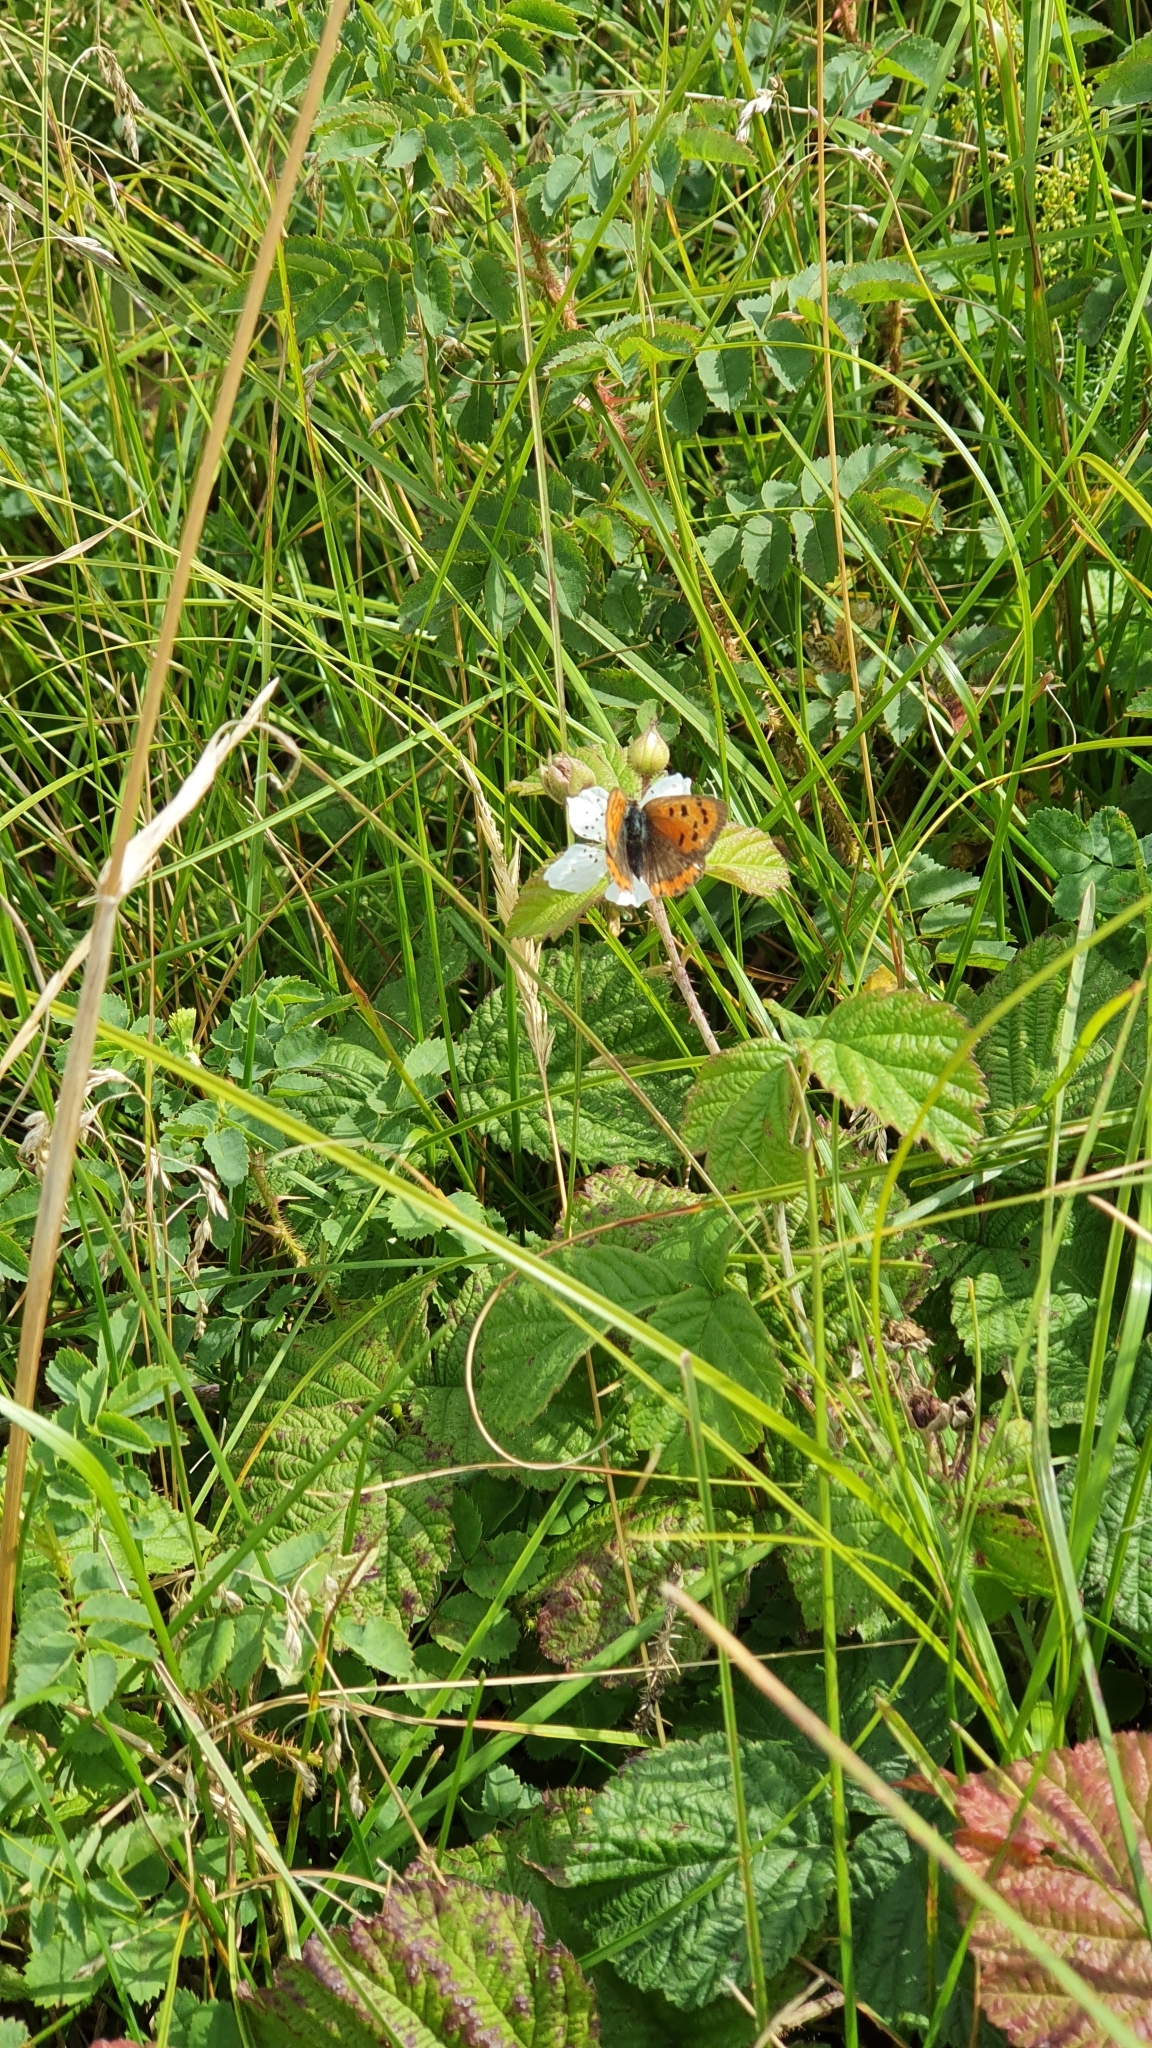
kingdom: Animalia
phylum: Arthropoda
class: Insecta
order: Lepidoptera
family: Lycaenidae
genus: Lycaena
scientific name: Lycaena phlaeas
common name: Small copper
